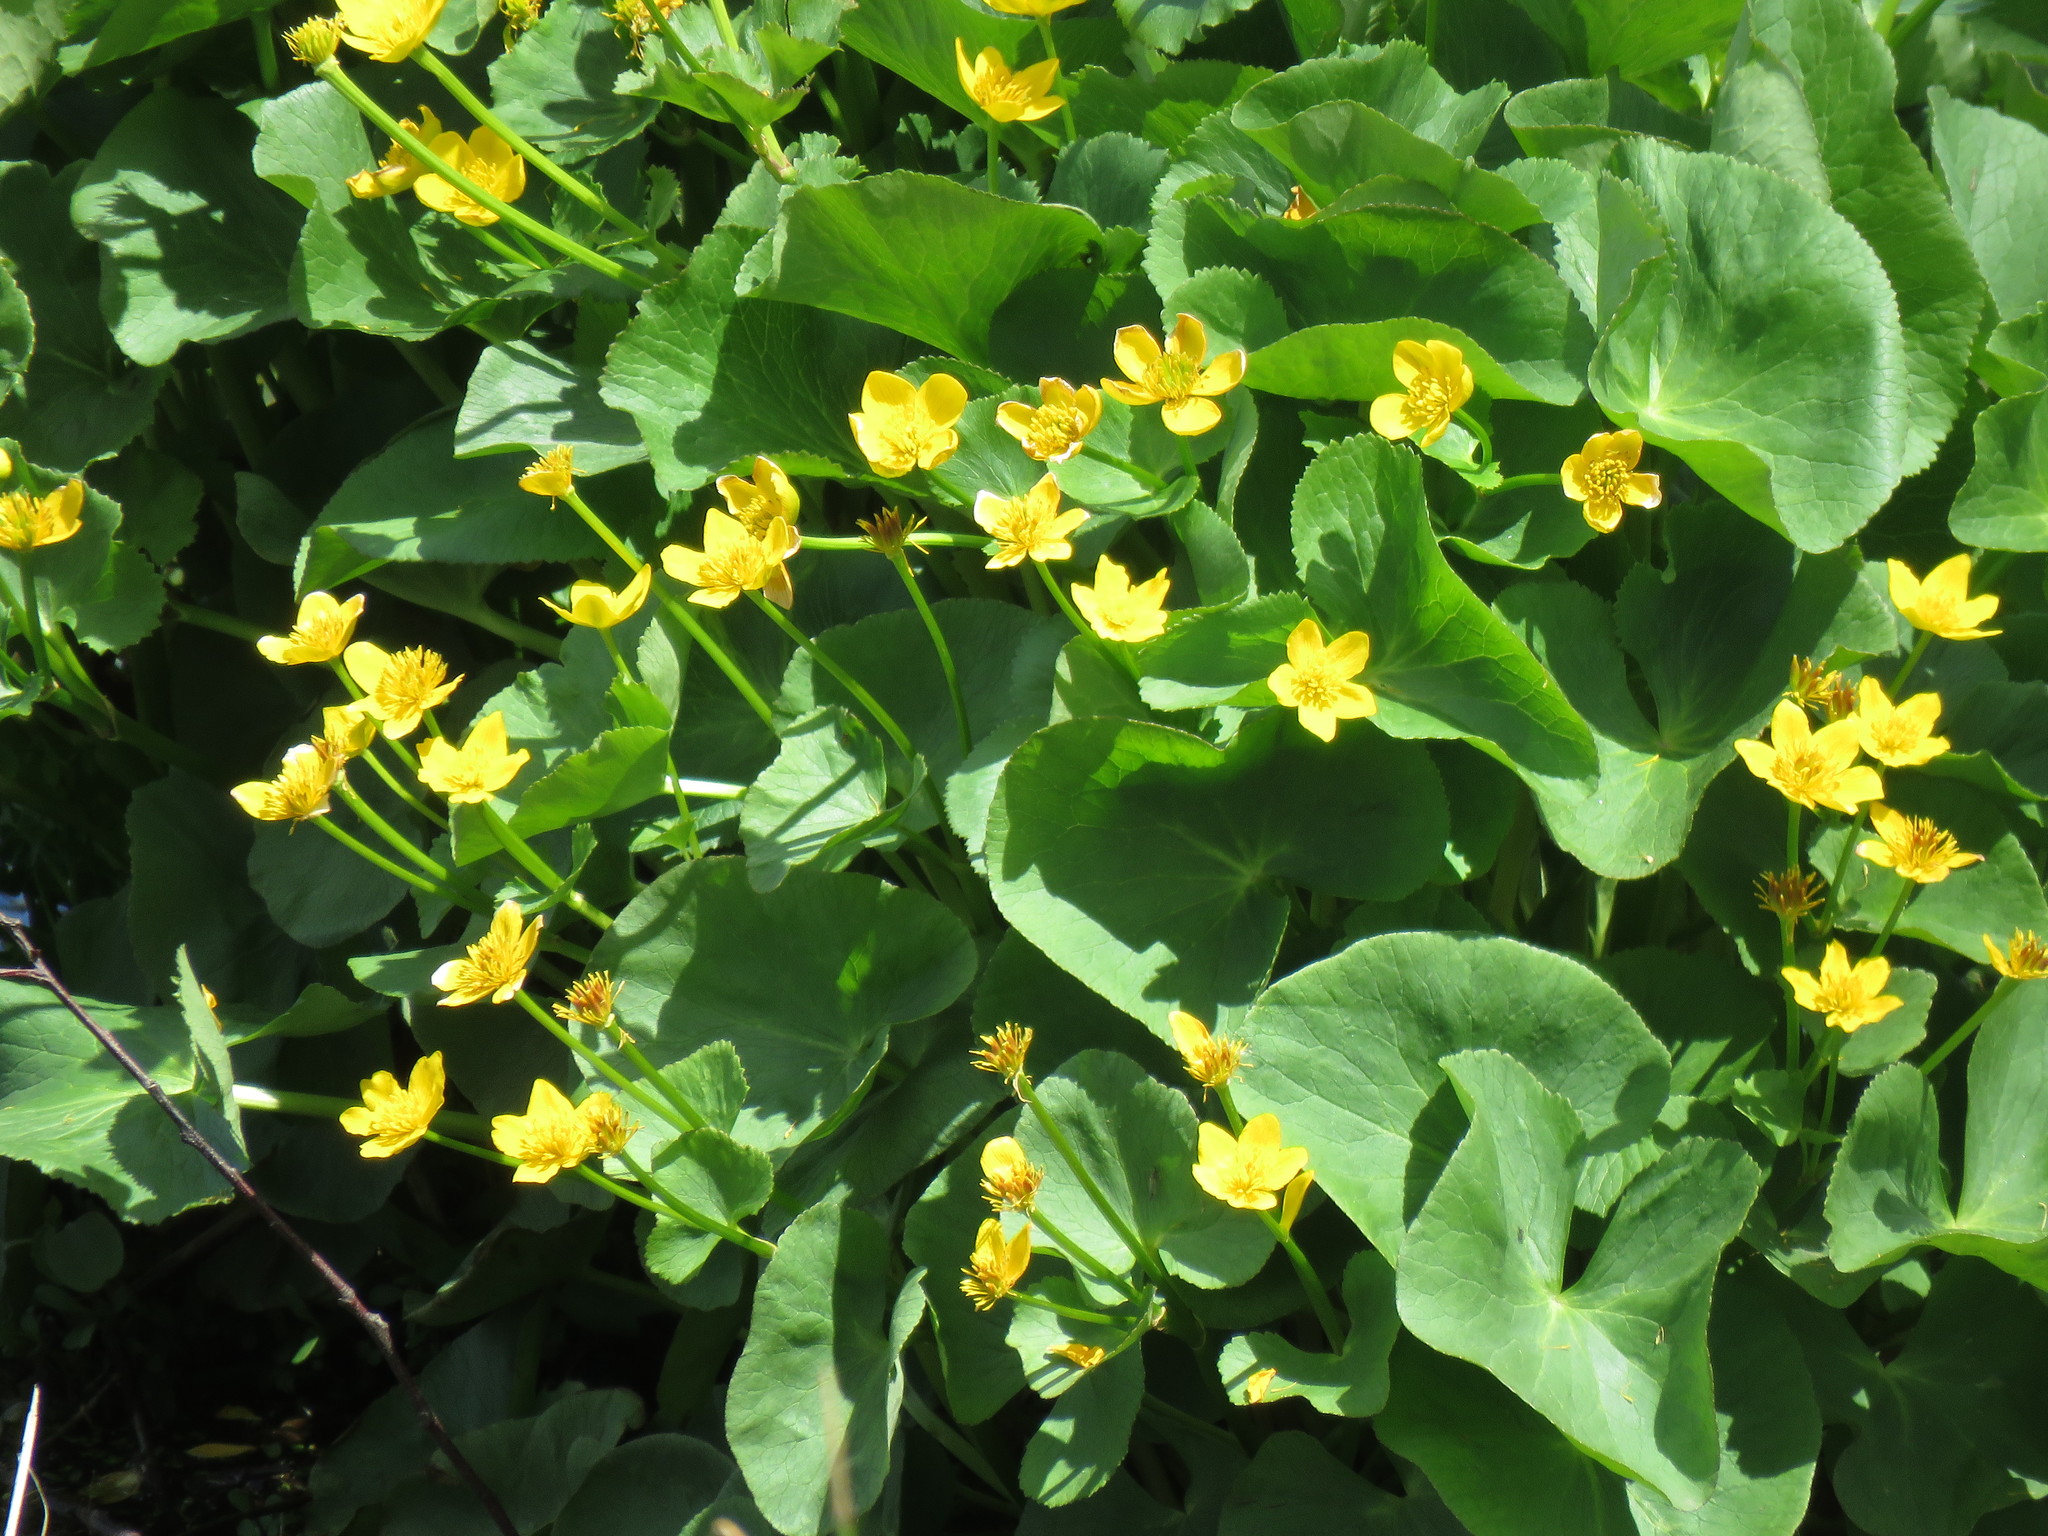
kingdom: Plantae
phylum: Tracheophyta
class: Magnoliopsida
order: Ranunculales
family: Ranunculaceae
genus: Caltha
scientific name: Caltha palustris
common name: Marsh marigold
